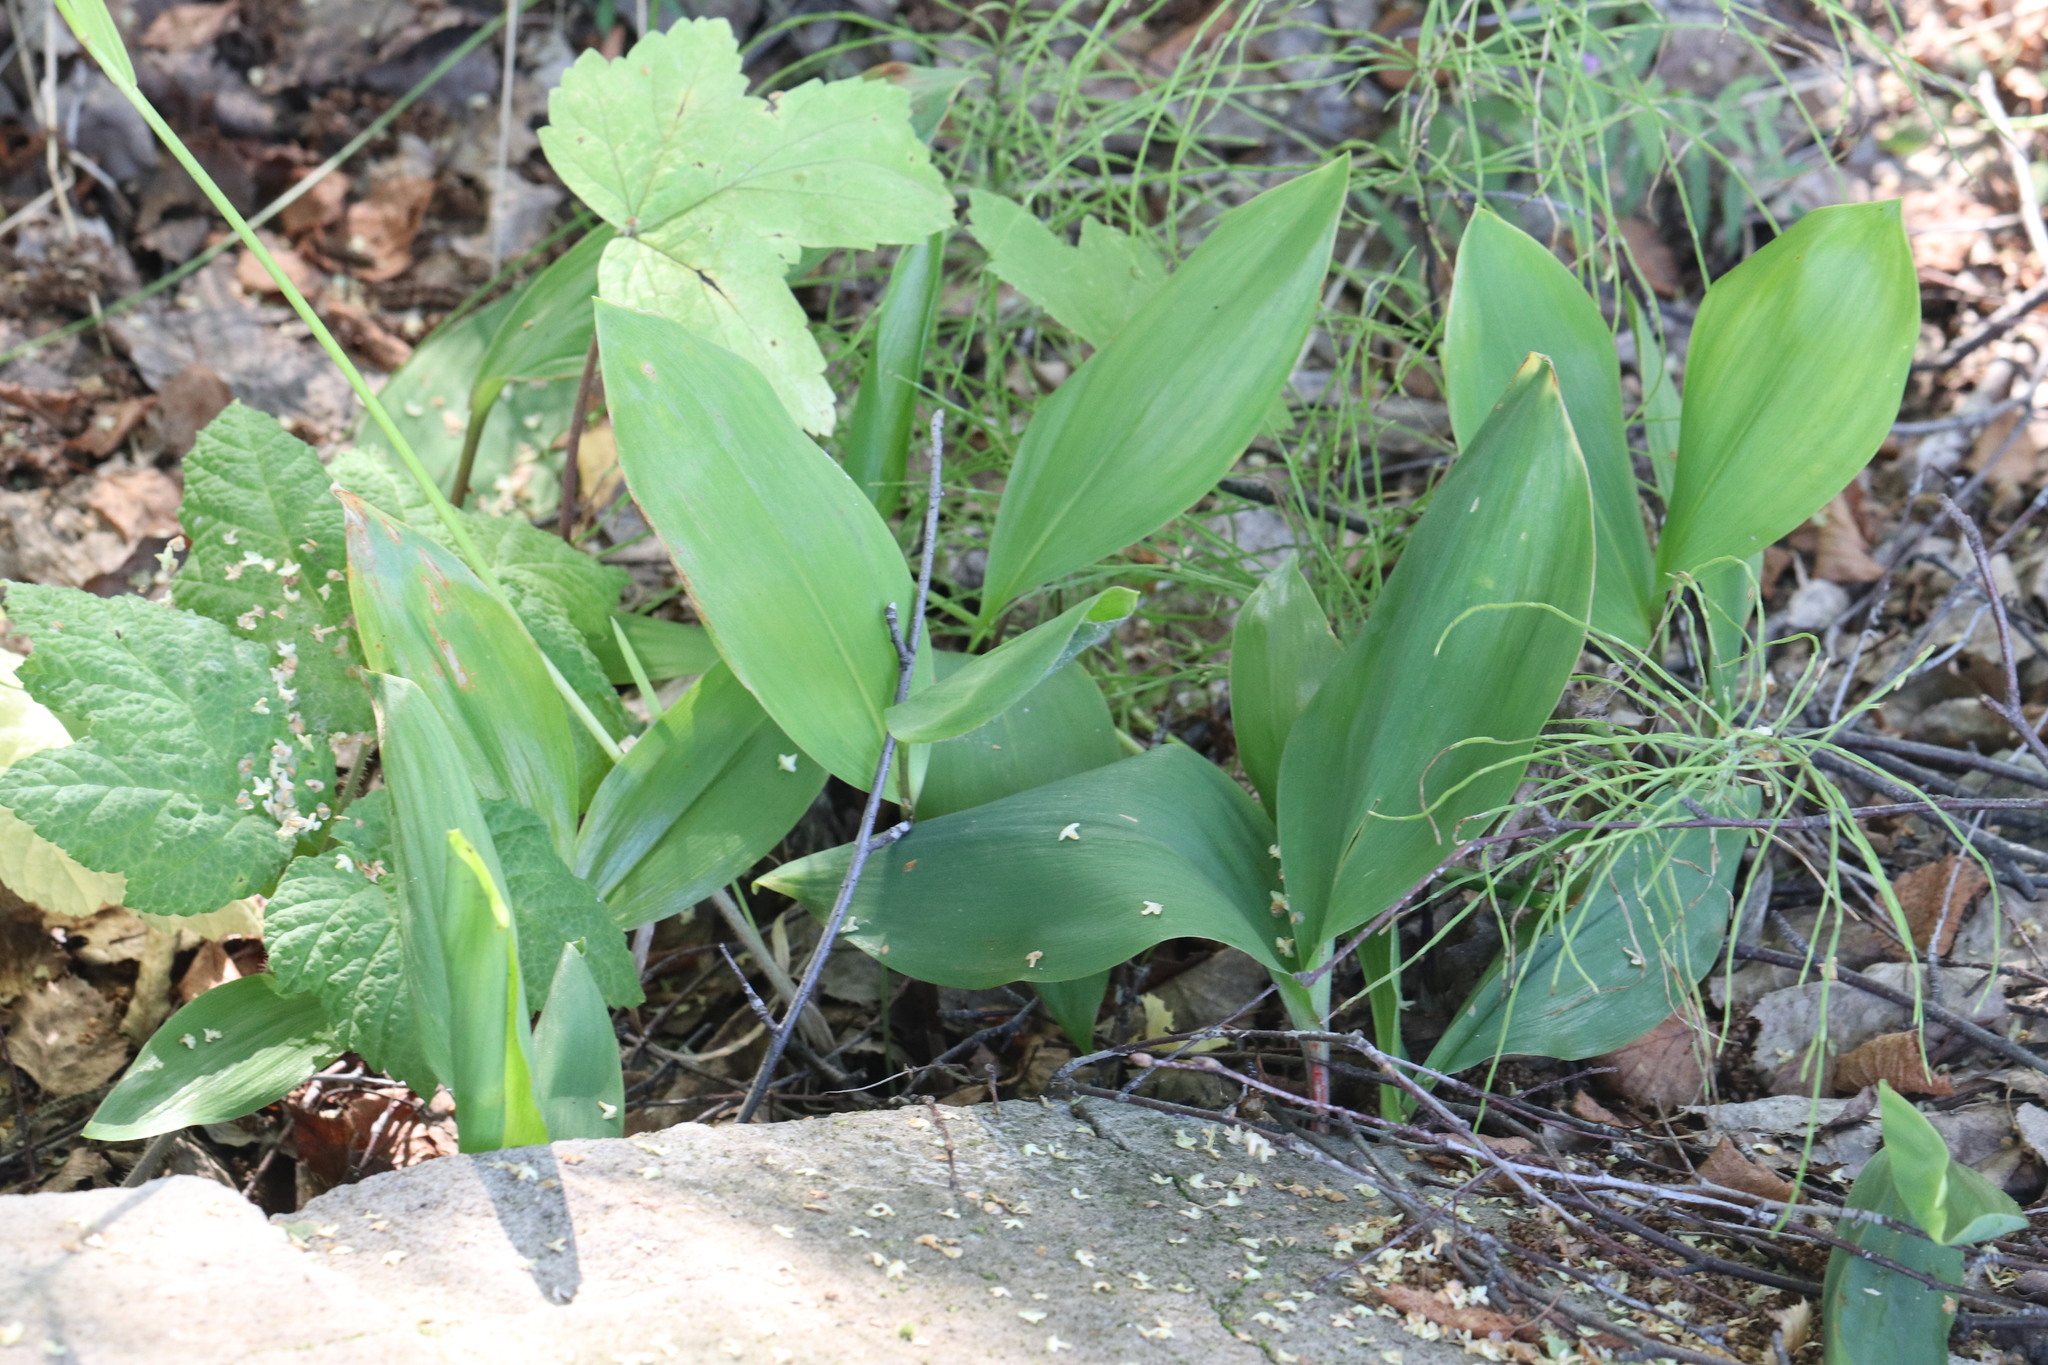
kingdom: Plantae
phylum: Tracheophyta
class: Liliopsida
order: Asparagales
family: Asparagaceae
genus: Convallaria
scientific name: Convallaria majalis
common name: Lily-of-the-valley
